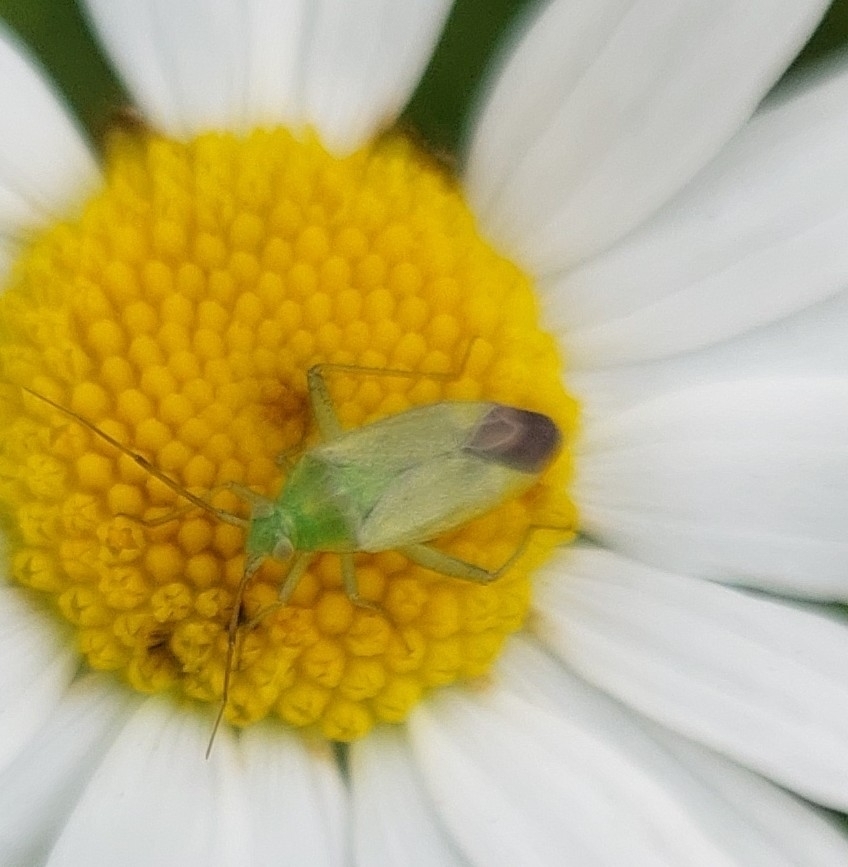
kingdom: Animalia
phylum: Arthropoda
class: Insecta
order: Hemiptera
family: Miridae
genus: Closterotomus
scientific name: Closterotomus norvegicus
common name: Plant bug
